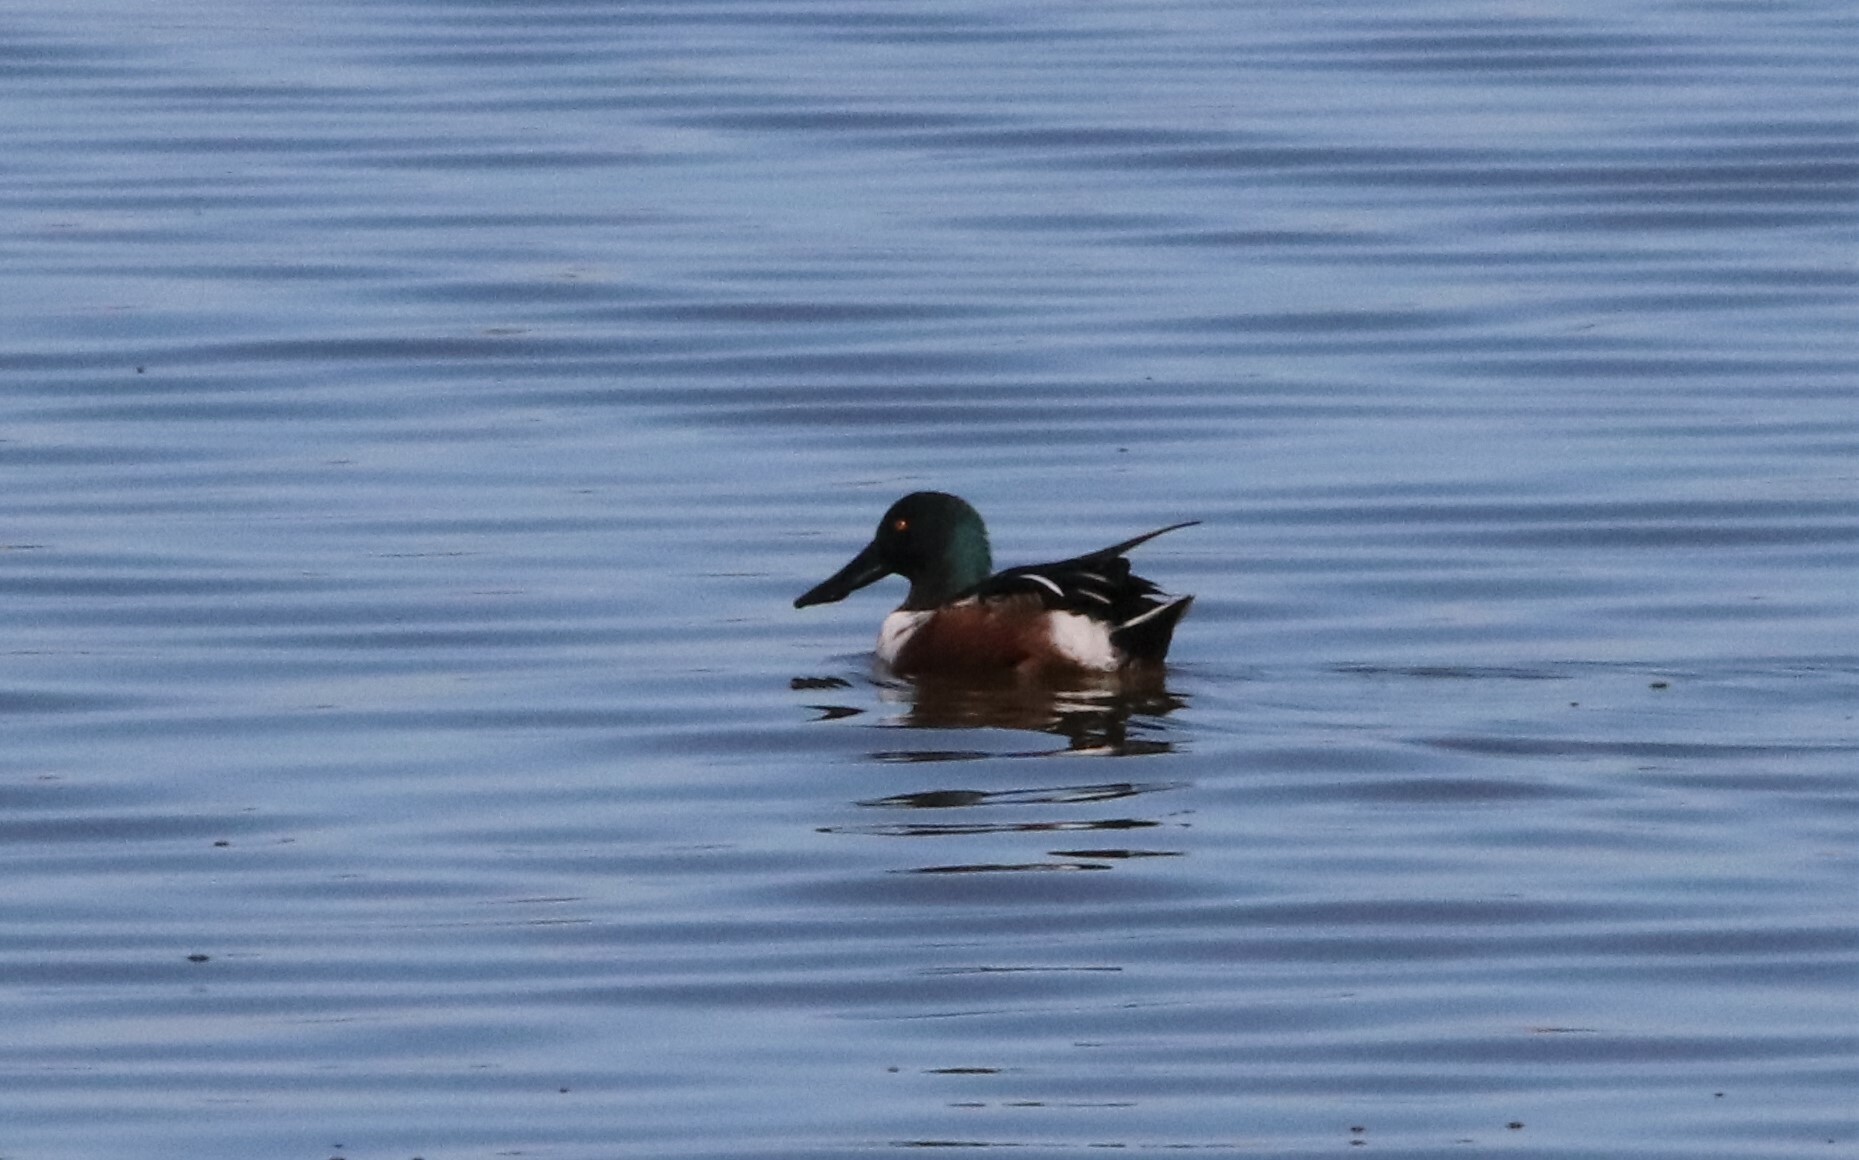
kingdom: Animalia
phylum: Chordata
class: Aves
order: Anseriformes
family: Anatidae
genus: Spatula
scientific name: Spatula clypeata
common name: Northern shoveler
